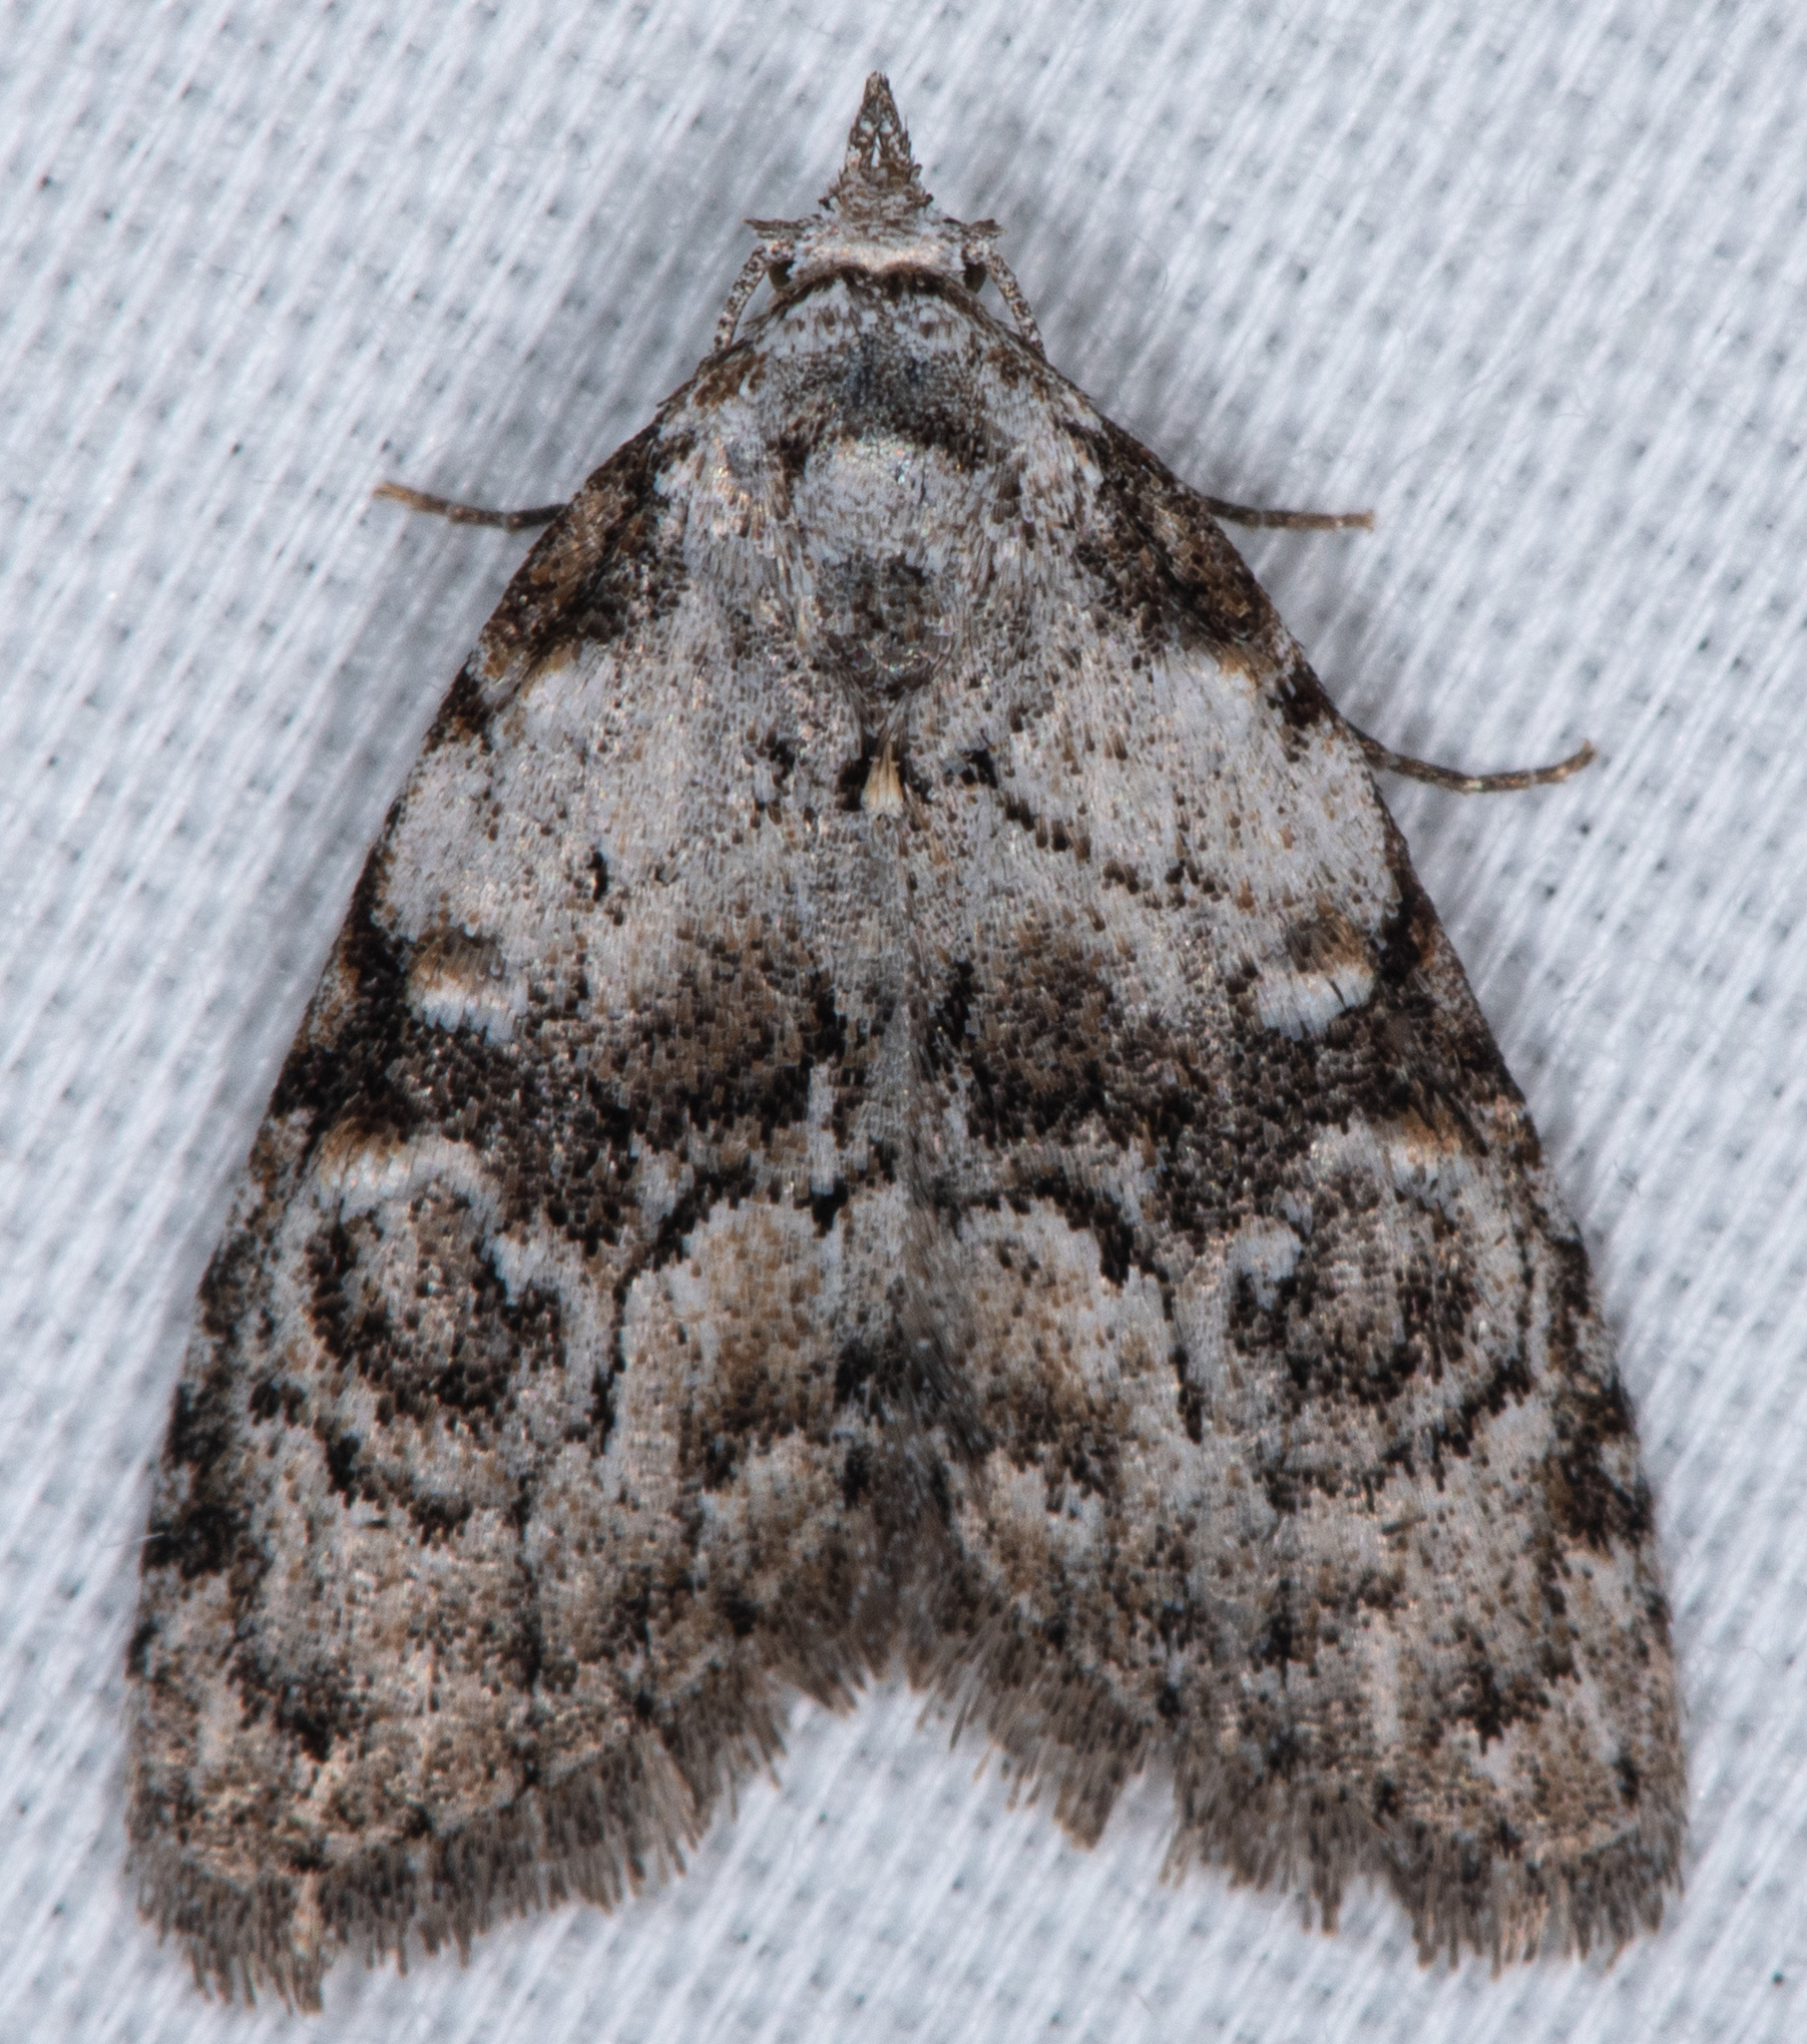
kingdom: Animalia
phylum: Arthropoda
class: Insecta
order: Lepidoptera
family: Nolidae
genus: Meganola
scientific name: Meganola minuscula
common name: Confused meganola moth
